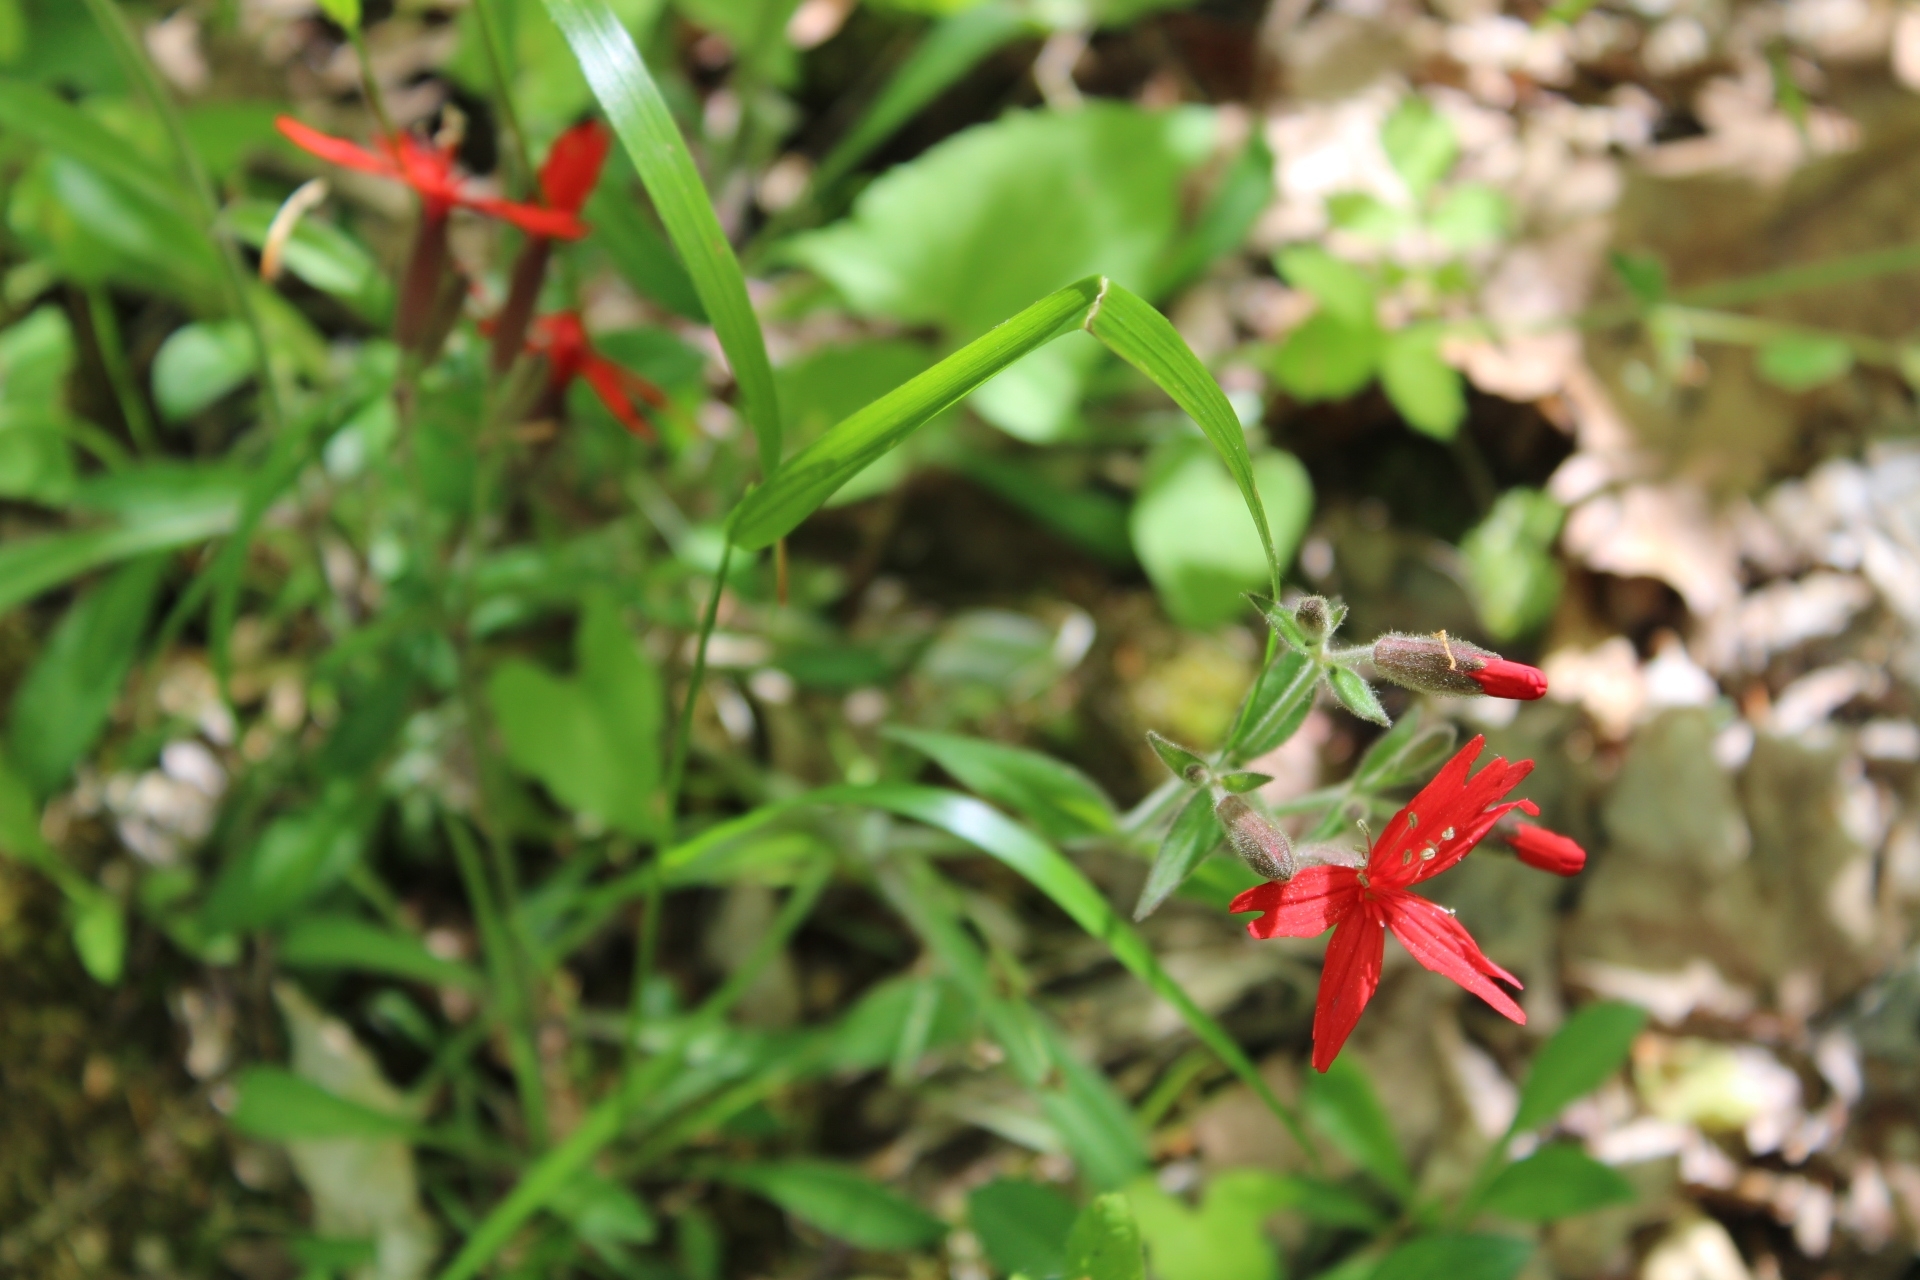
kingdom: Plantae
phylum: Tracheophyta
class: Magnoliopsida
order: Caryophyllales
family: Caryophyllaceae
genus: Silene
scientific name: Silene virginica
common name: Fire-pink
